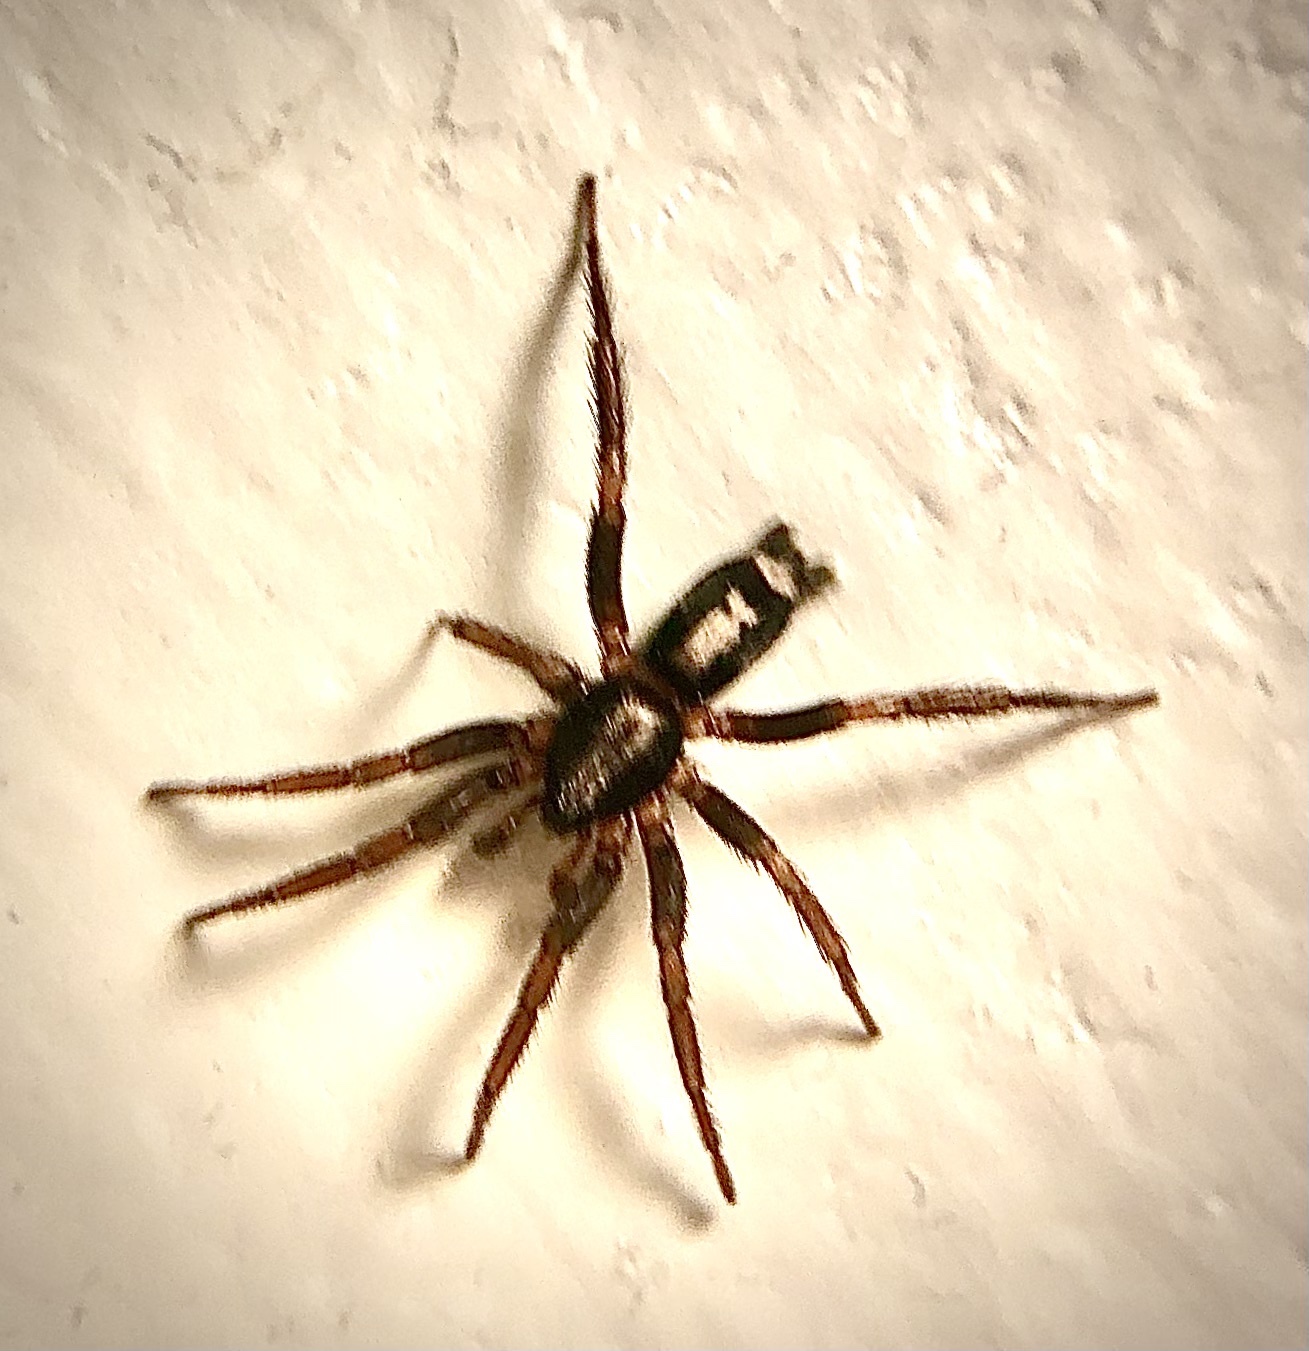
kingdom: Animalia
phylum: Arthropoda
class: Arachnida
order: Araneae
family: Gnaphosidae
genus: Herpyllus
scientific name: Herpyllus ecclesiasticus
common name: Eastern parson spider
